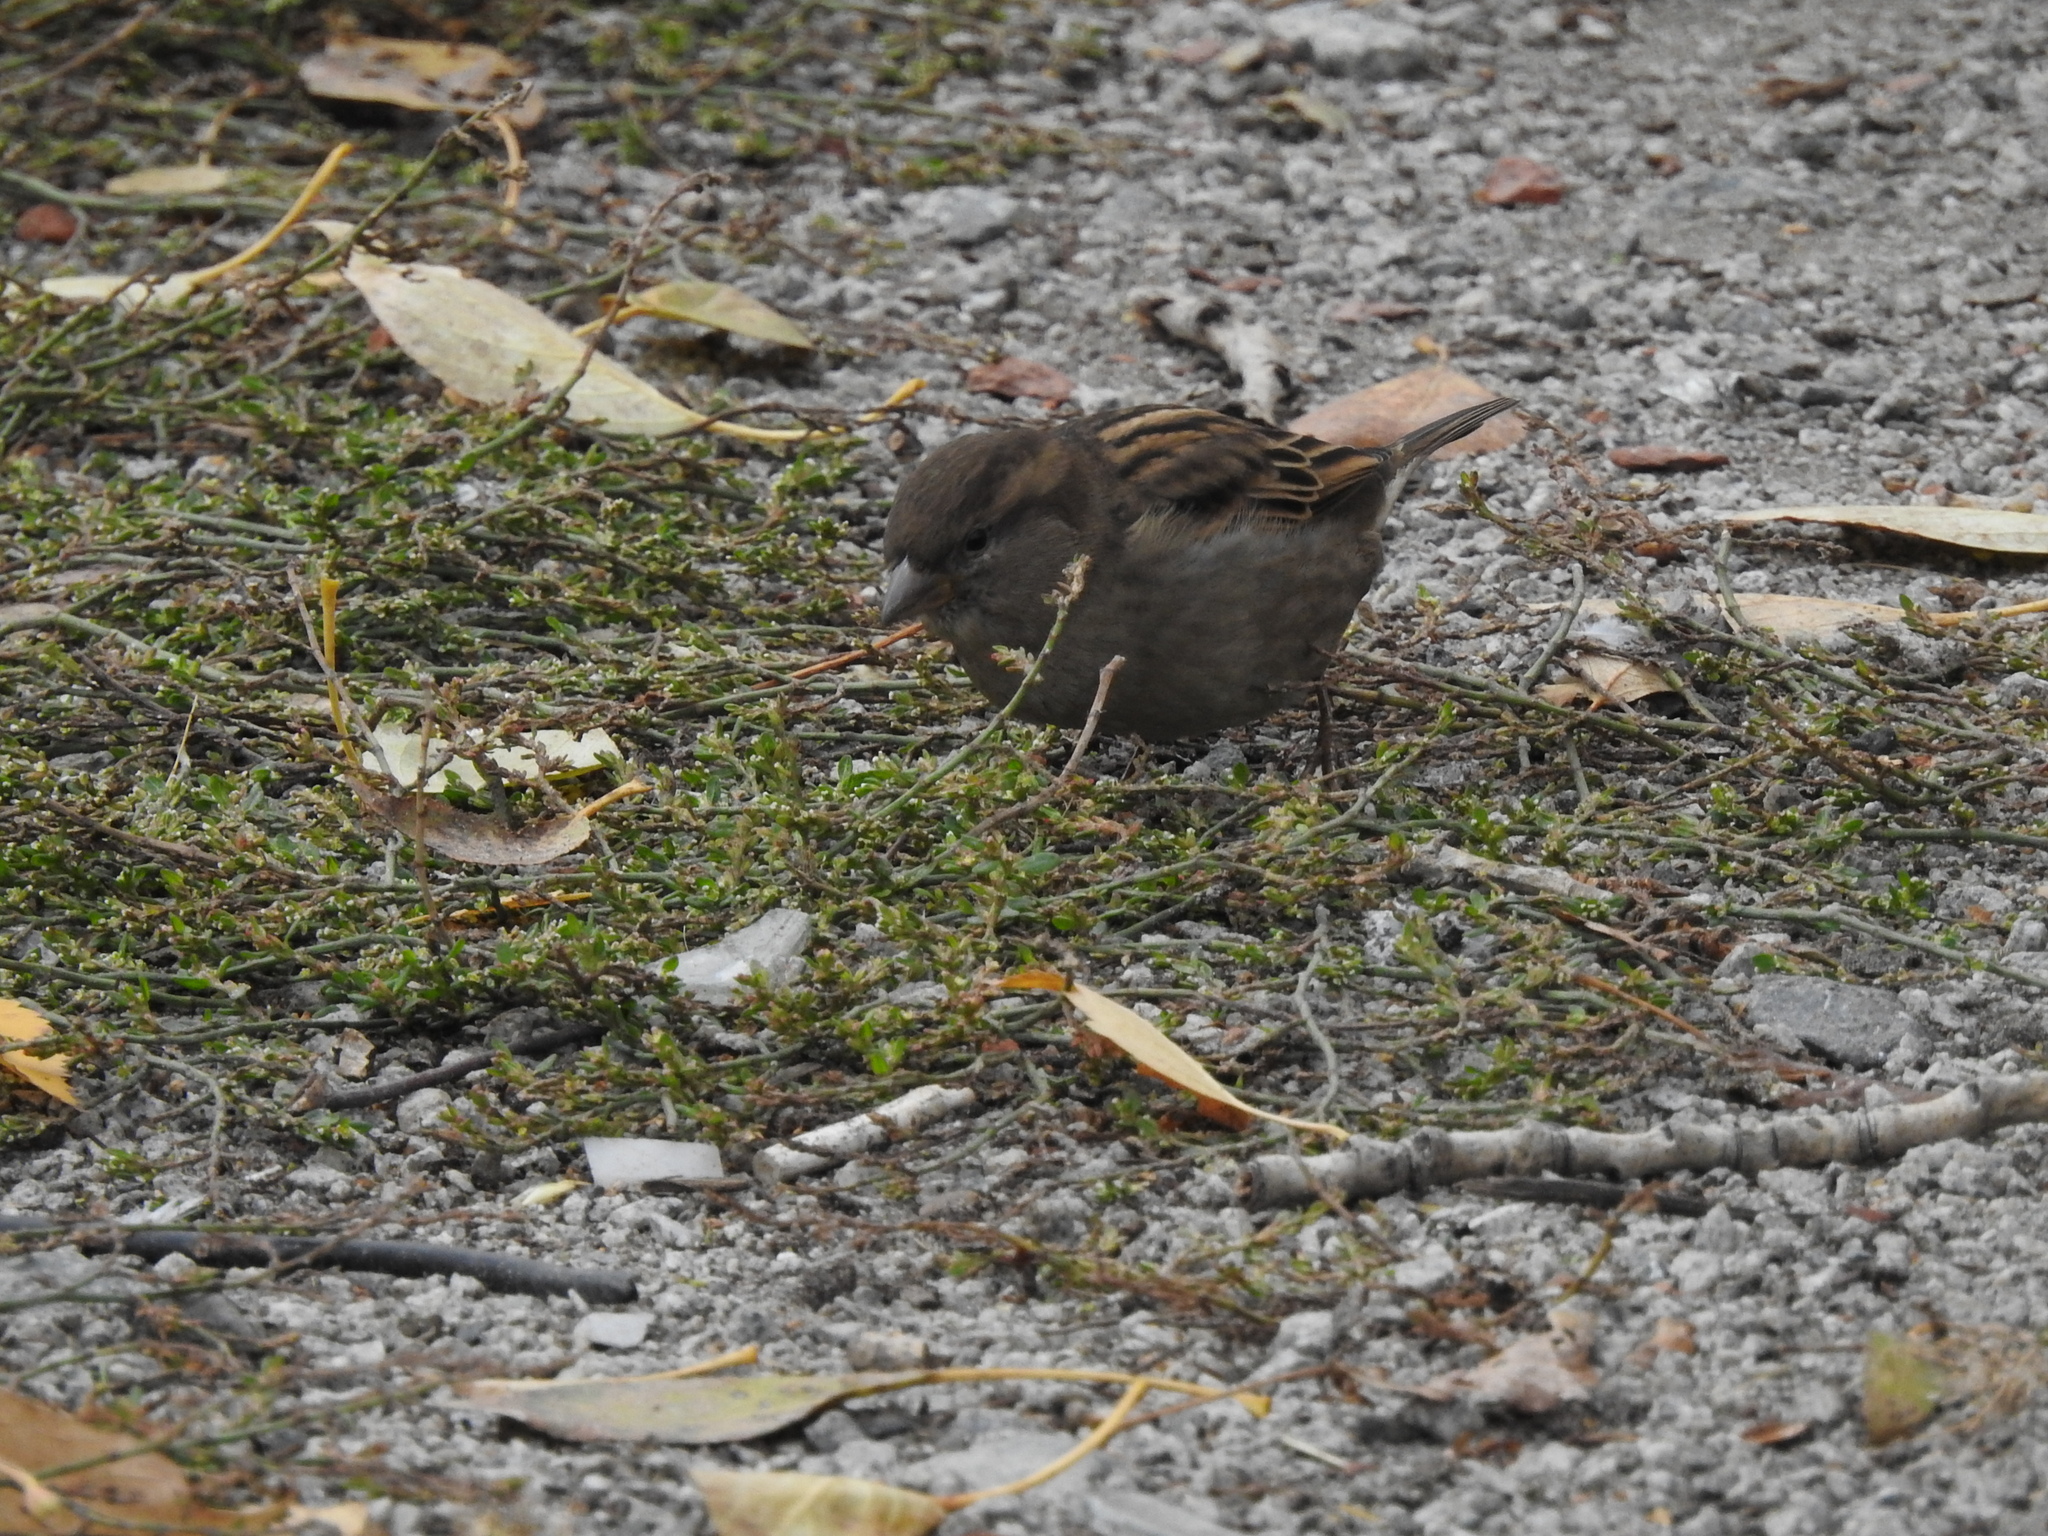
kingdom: Animalia
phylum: Chordata
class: Aves
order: Passeriformes
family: Passeridae
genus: Passer
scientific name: Passer domesticus
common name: House sparrow
